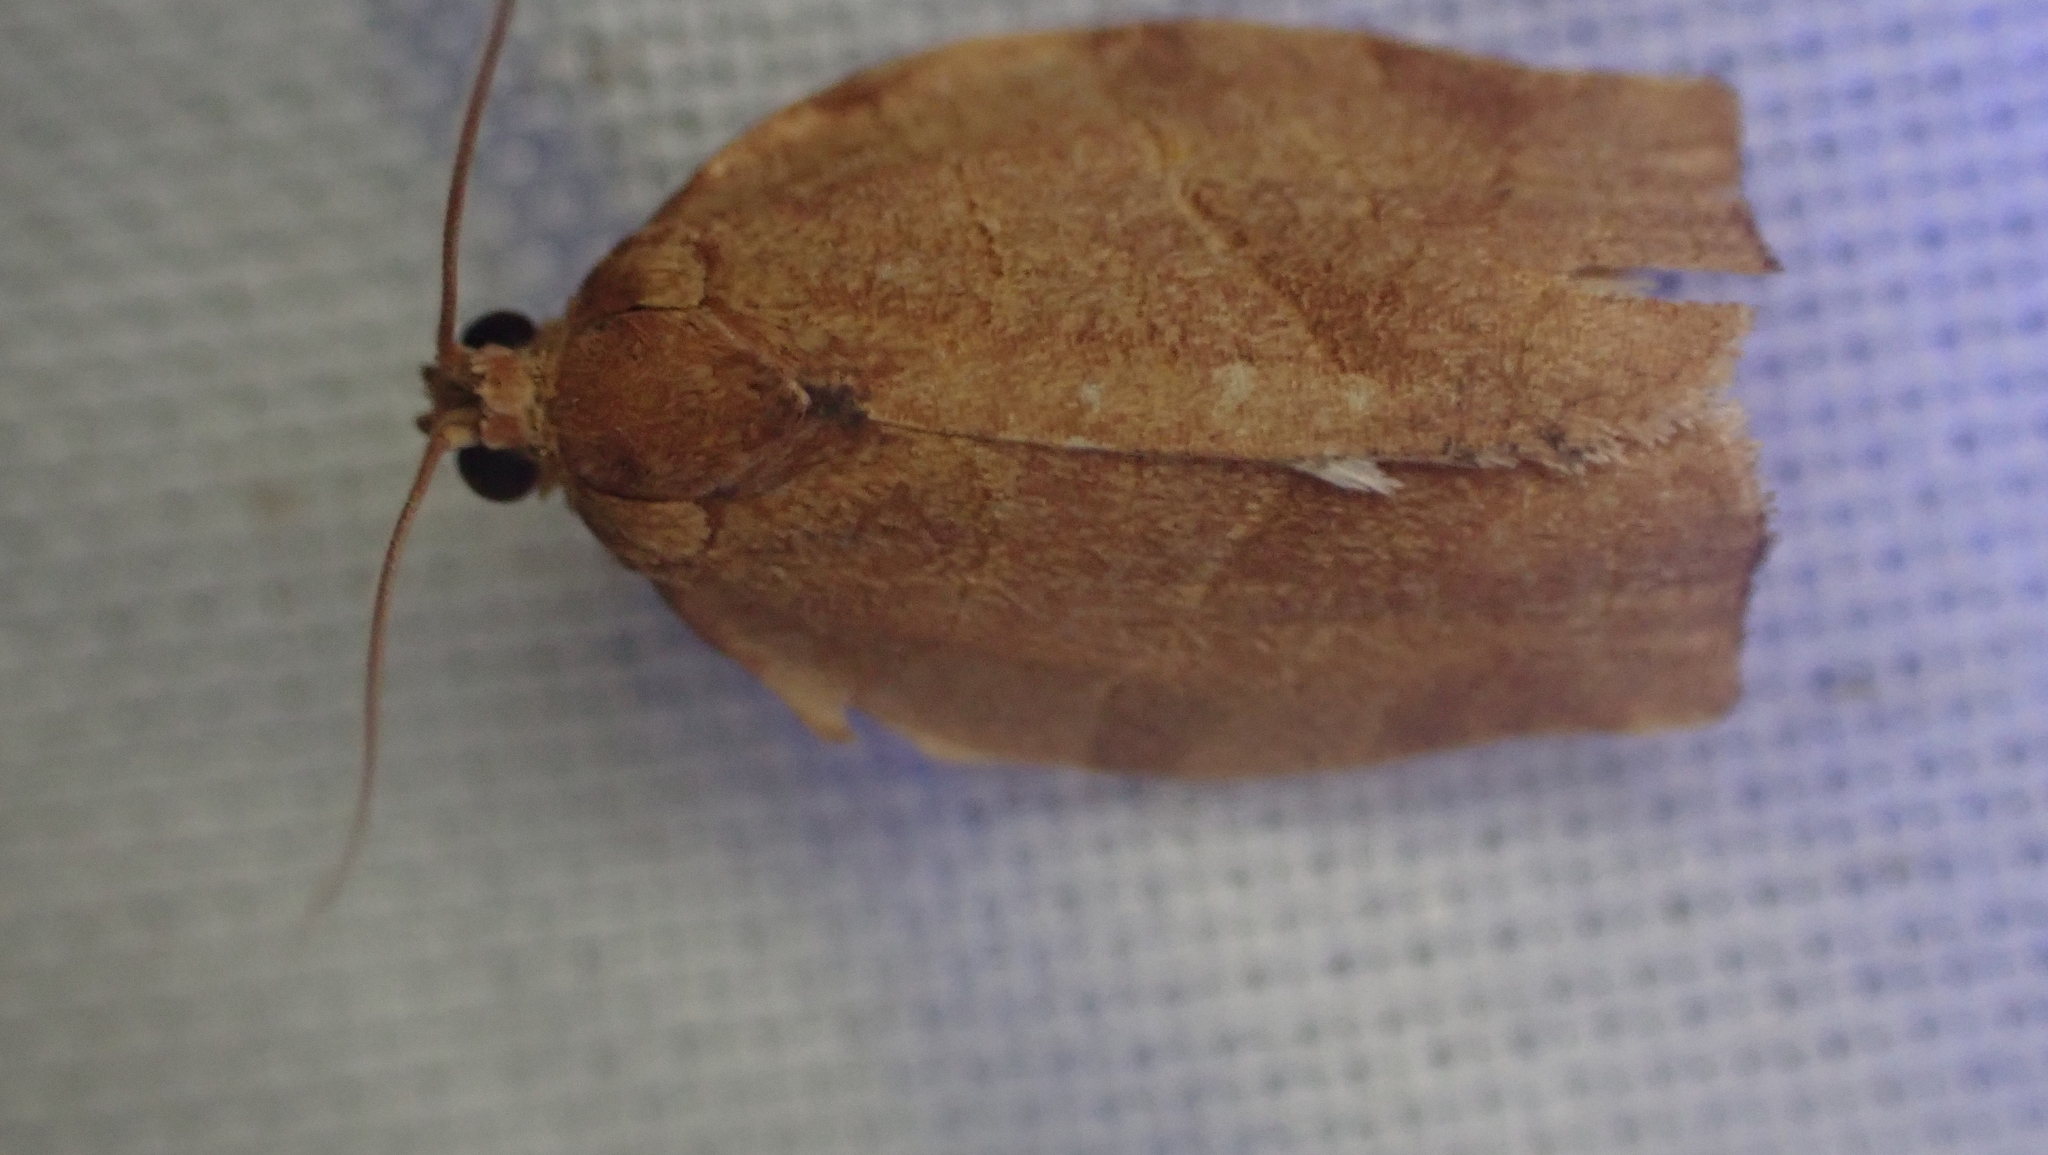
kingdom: Animalia
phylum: Arthropoda
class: Insecta
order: Lepidoptera
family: Tortricidae
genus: Choristoneura
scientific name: Choristoneura rosaceana
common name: Oblique-banded leafroller moth
